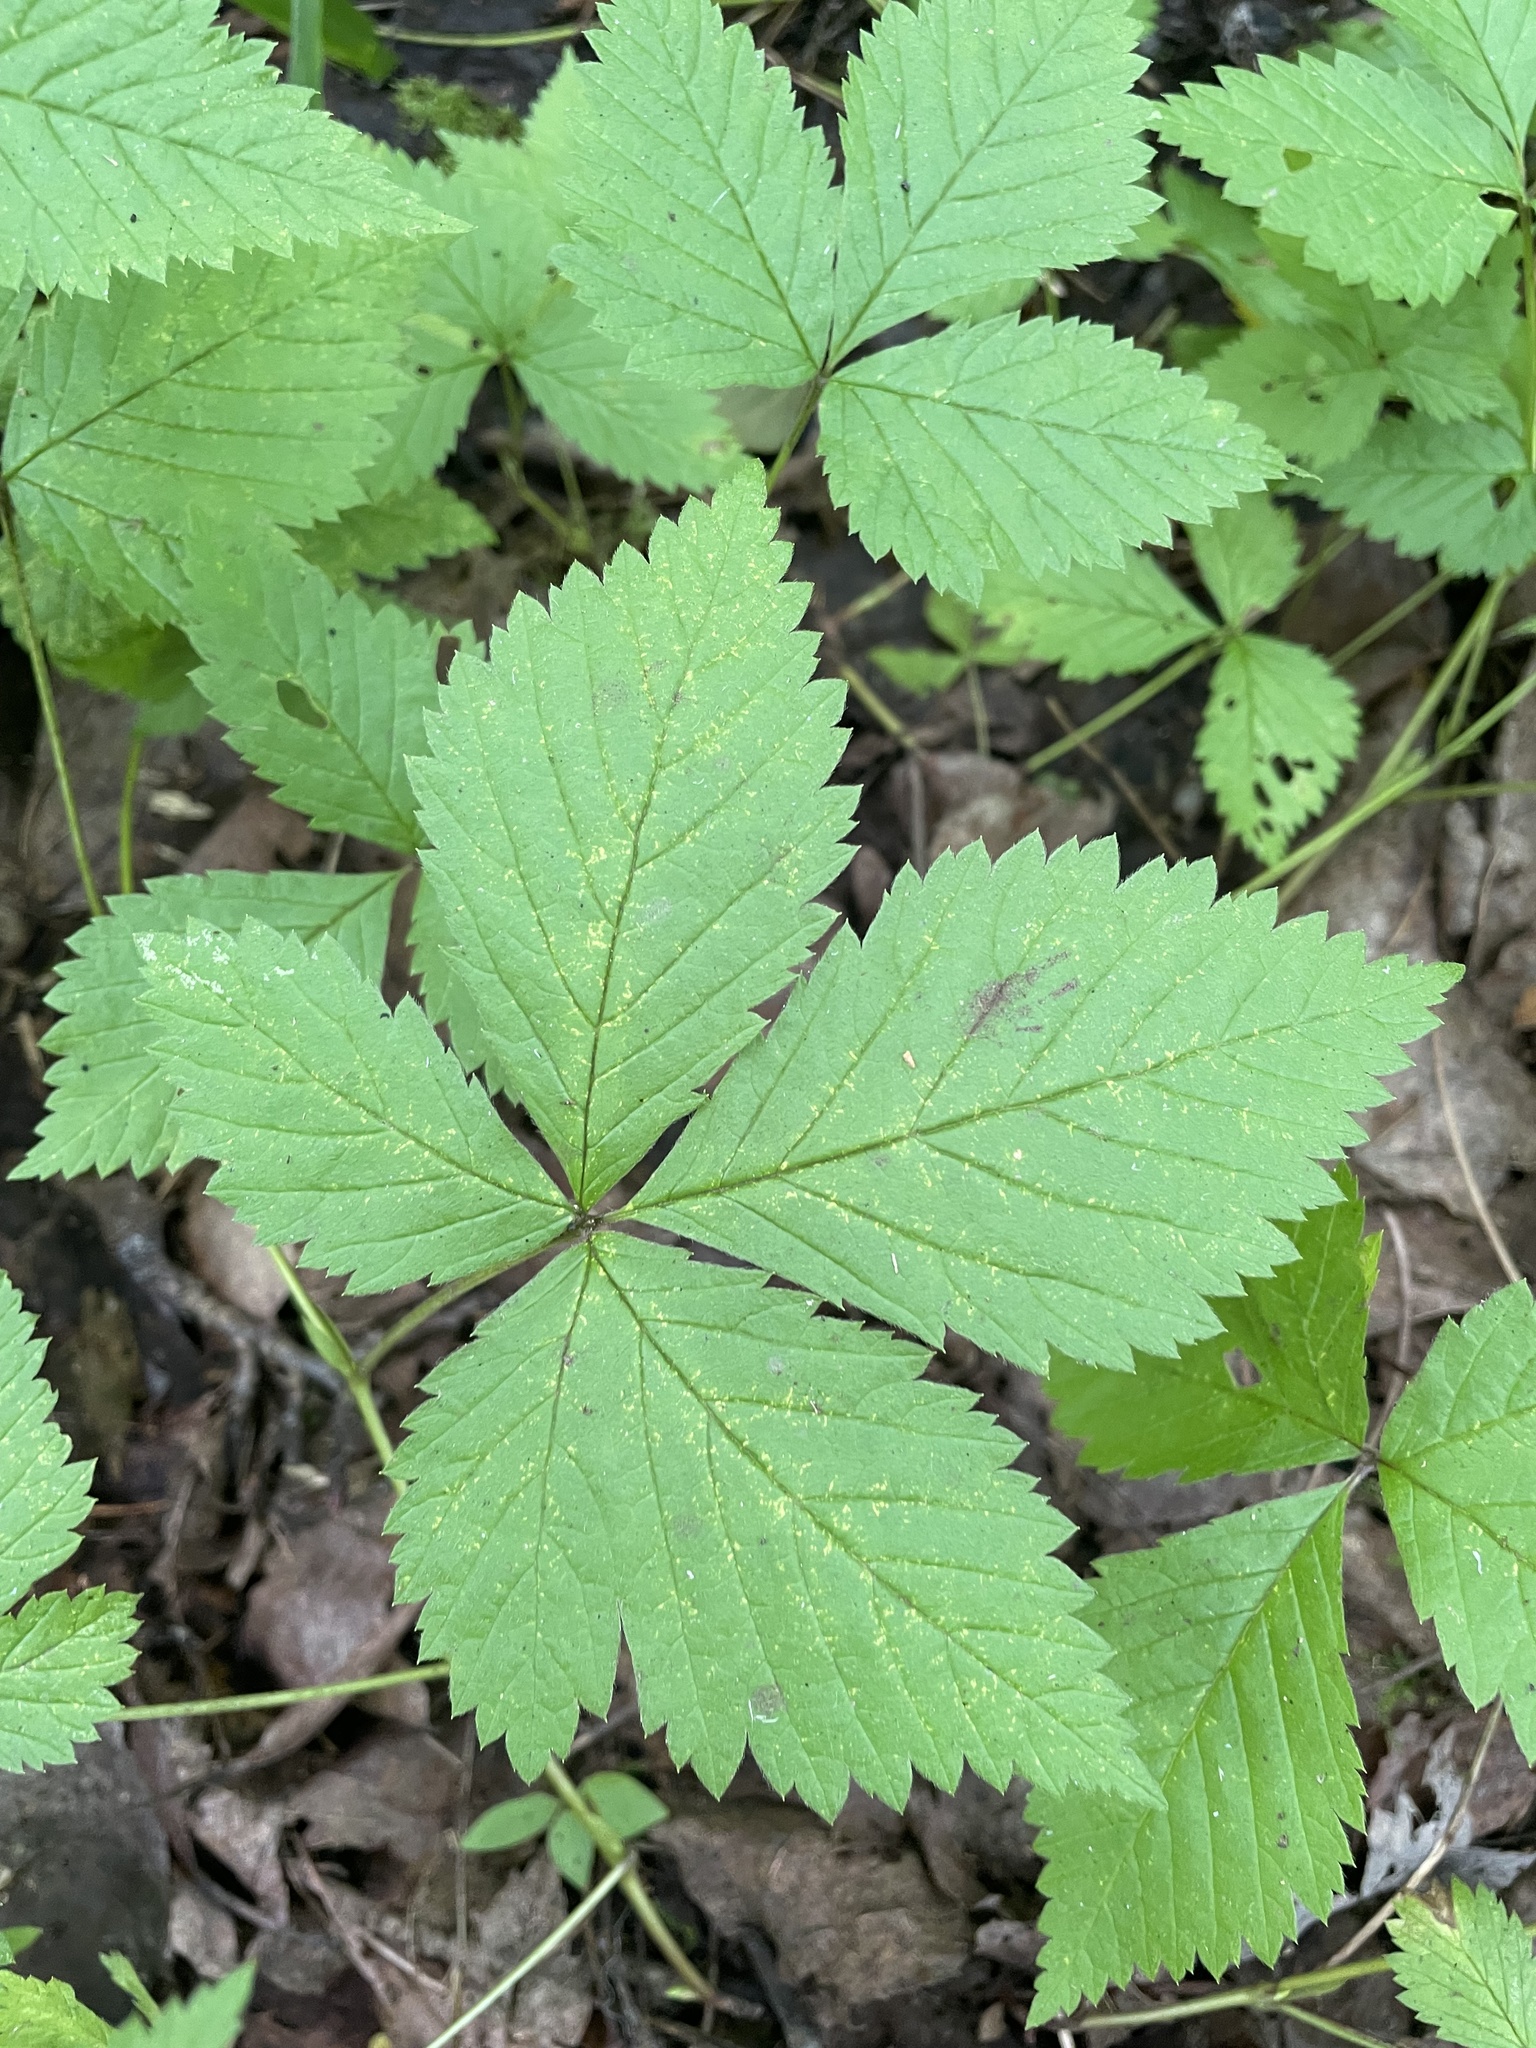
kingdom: Plantae
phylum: Tracheophyta
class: Magnoliopsida
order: Rosales
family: Rosaceae
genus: Rubus
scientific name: Rubus pubescens
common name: Dwarf raspberry
